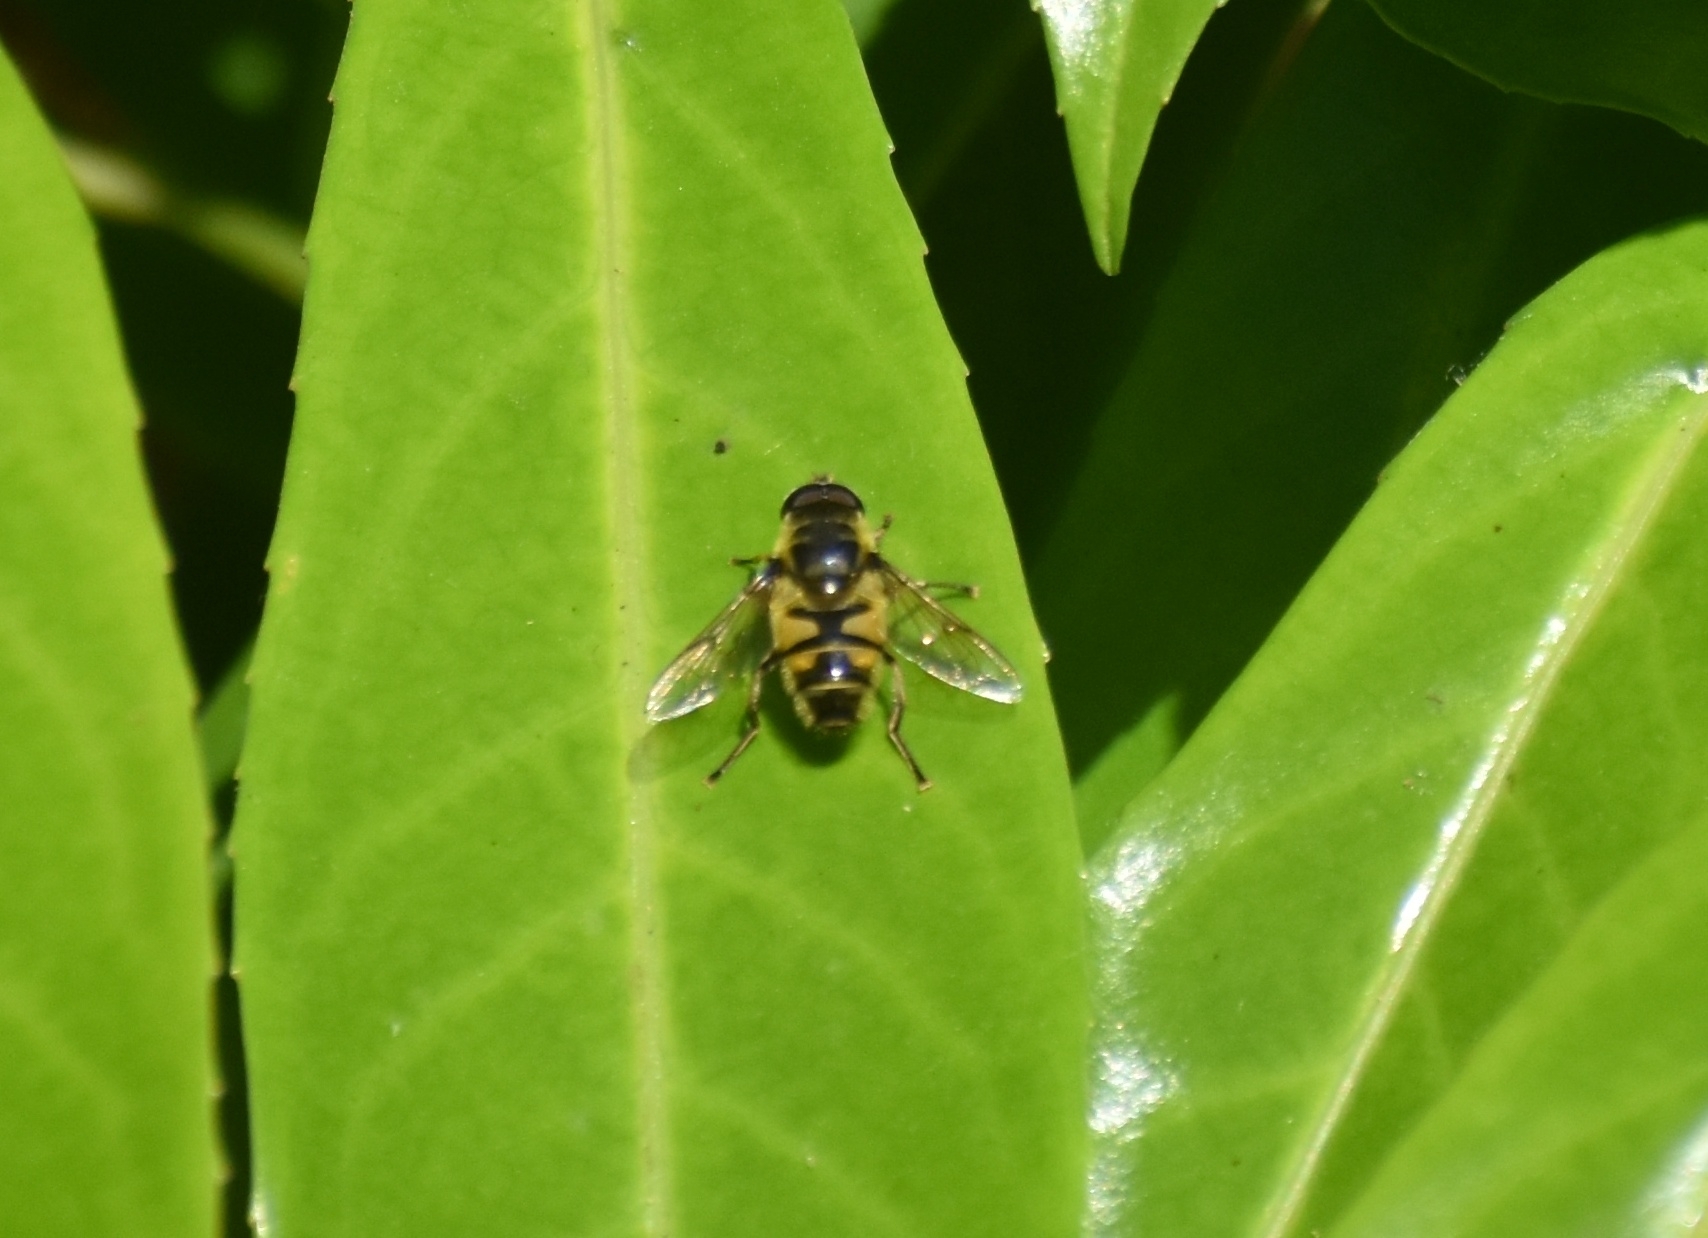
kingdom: Animalia
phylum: Arthropoda
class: Insecta
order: Diptera
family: Syrphidae
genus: Myathropa
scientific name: Myathropa florea
